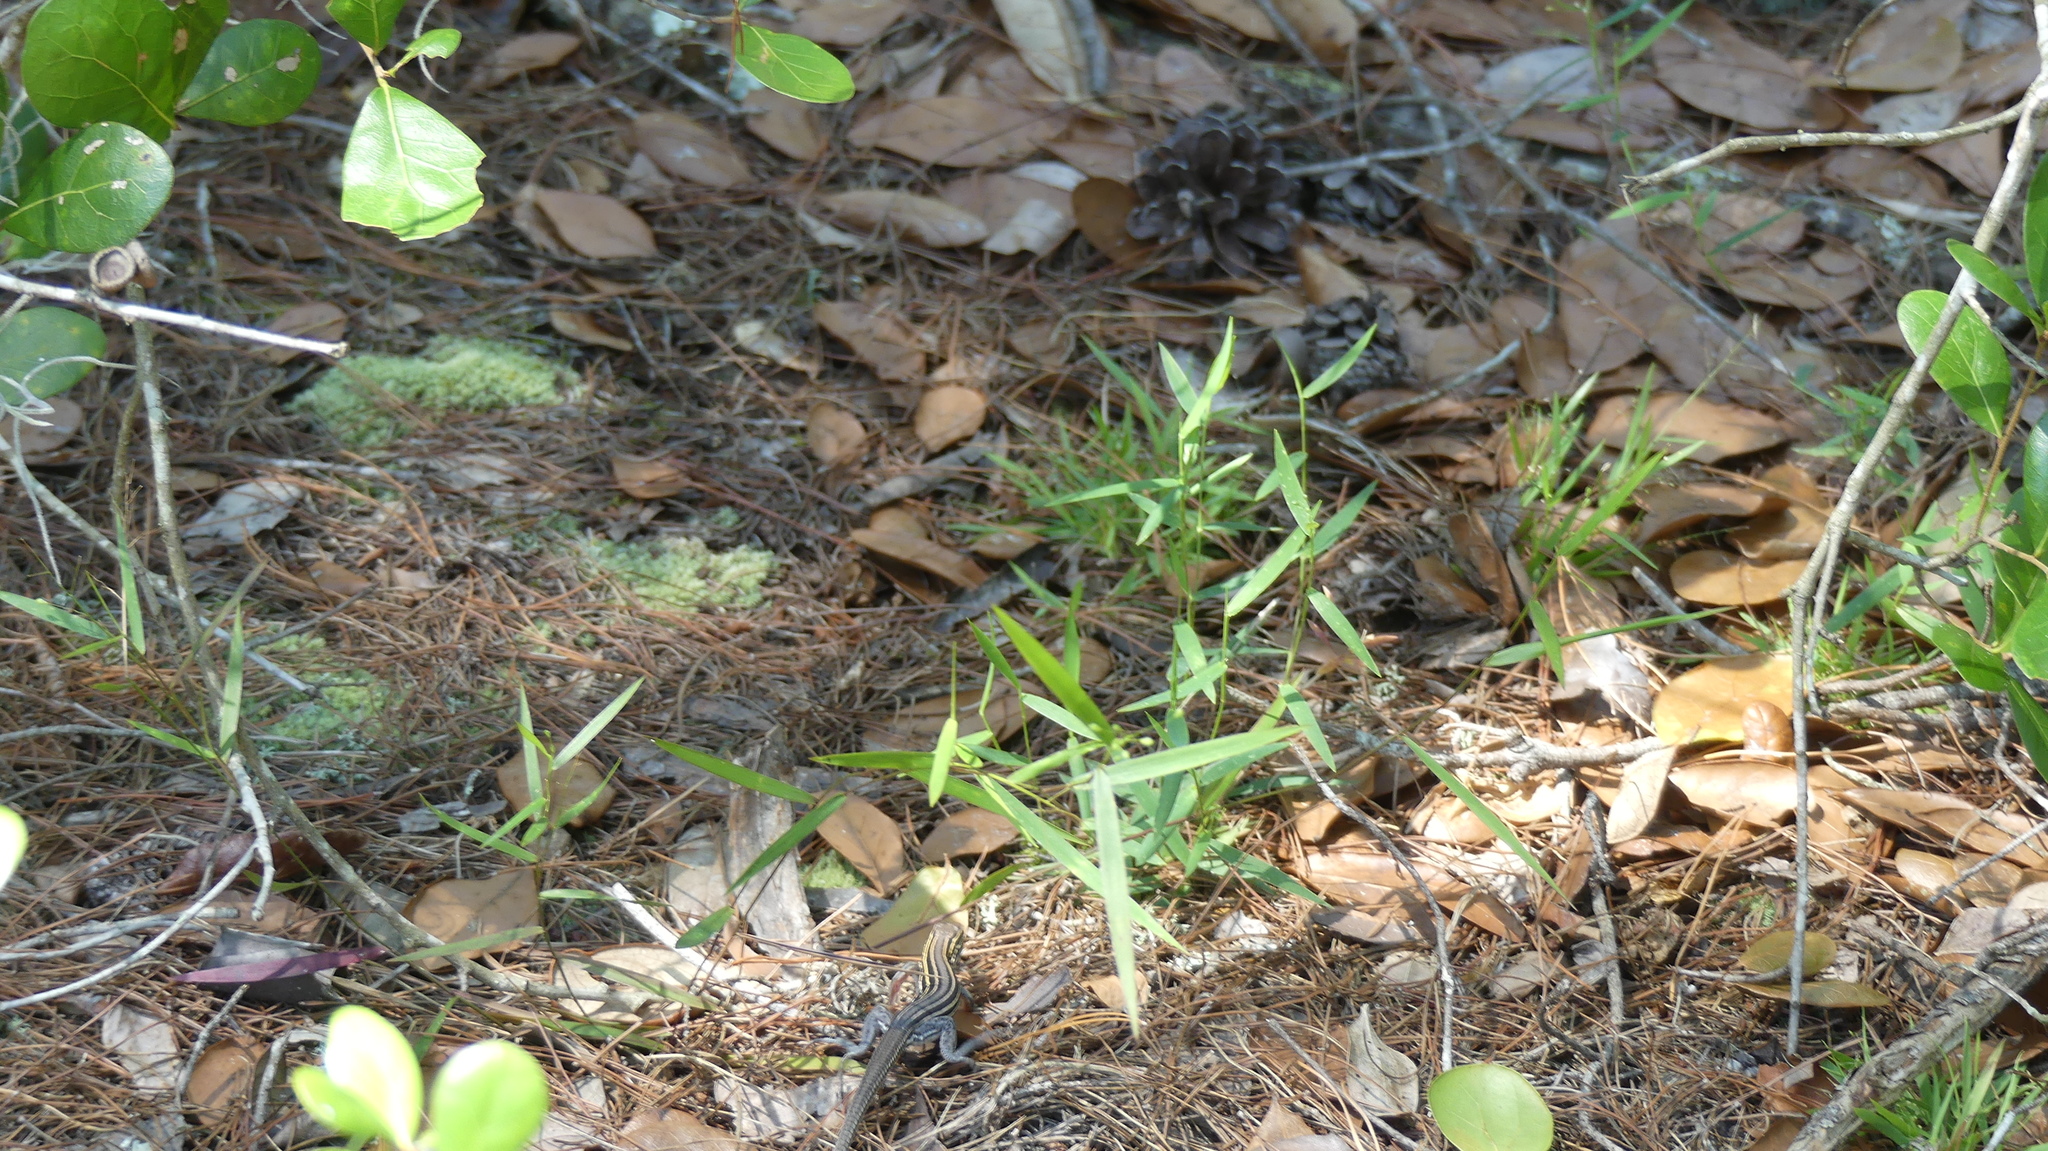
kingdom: Animalia
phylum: Chordata
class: Squamata
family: Teiidae
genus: Aspidoscelis
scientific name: Aspidoscelis sexlineatus
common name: Six-lined racerunner
